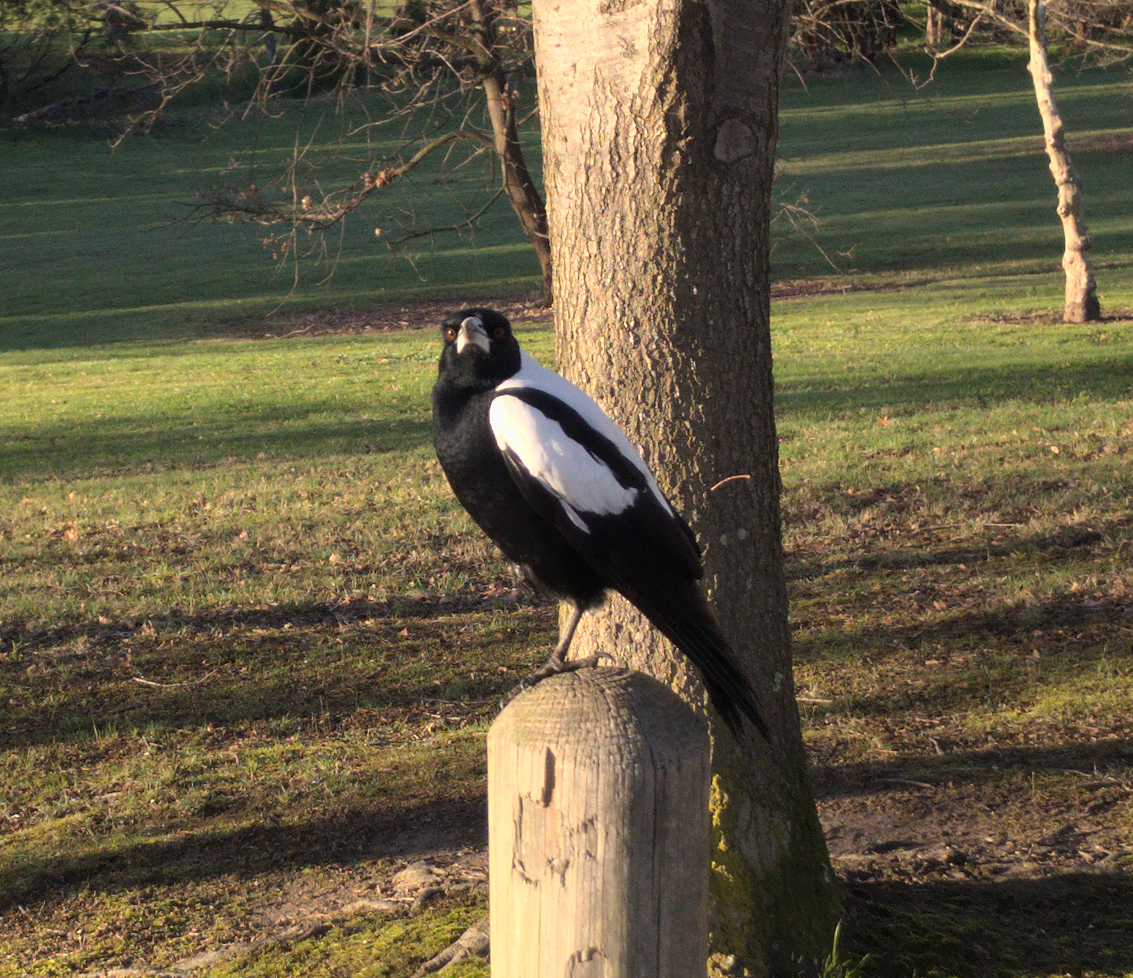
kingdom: Animalia
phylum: Chordata
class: Aves
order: Passeriformes
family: Cracticidae
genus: Gymnorhina
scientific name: Gymnorhina tibicen
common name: Australian magpie
